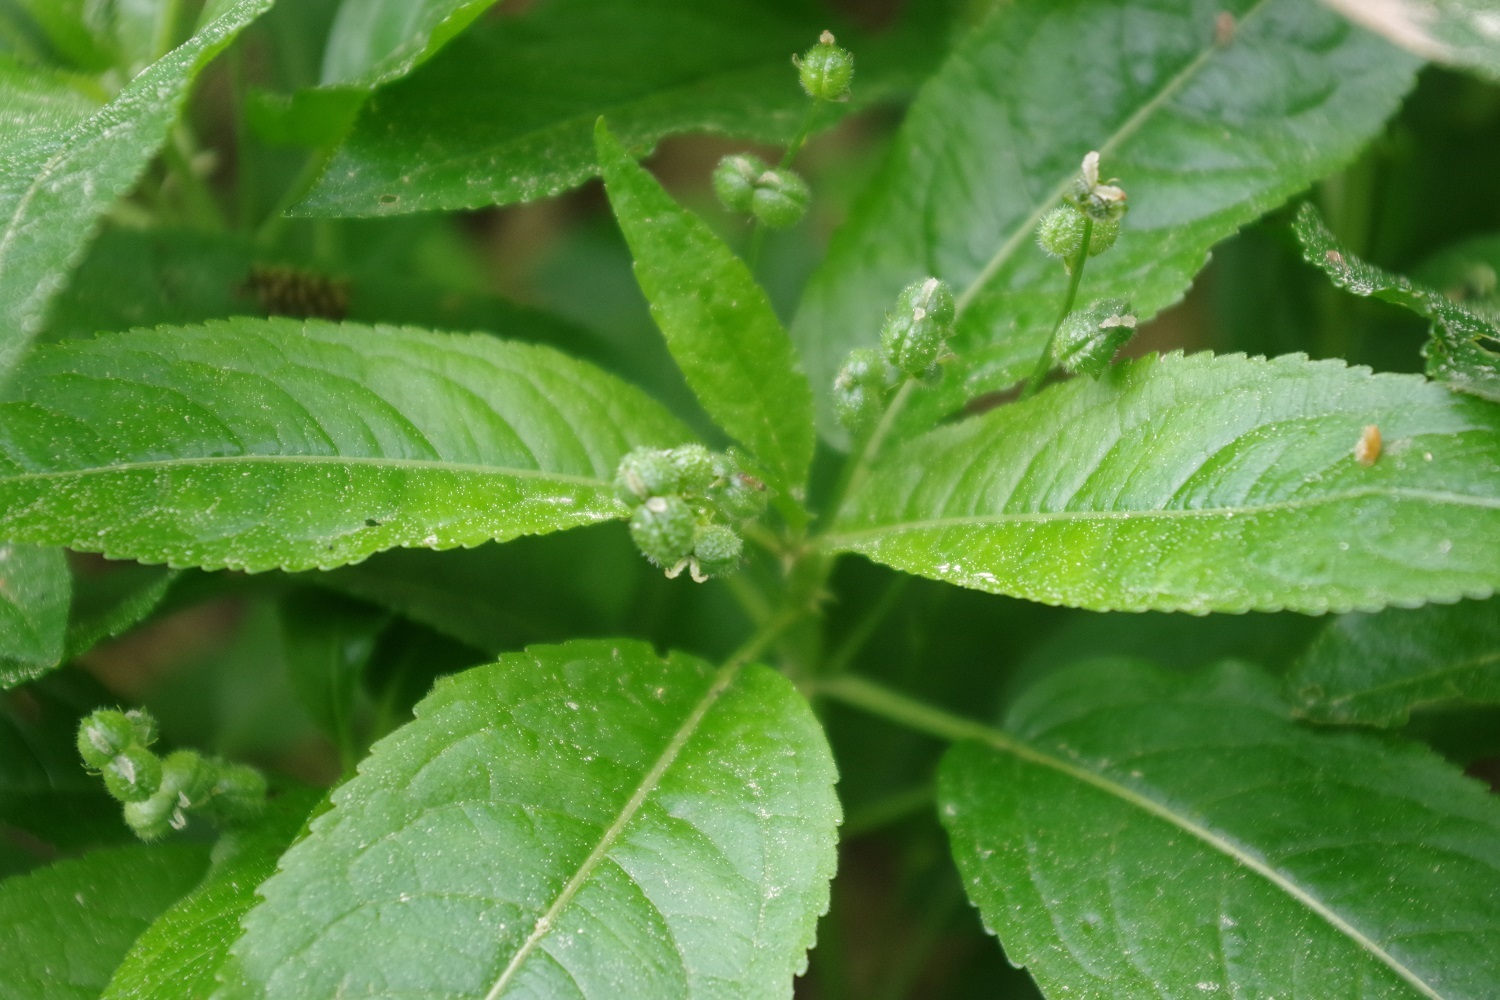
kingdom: Plantae
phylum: Tracheophyta
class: Magnoliopsida
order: Malpighiales
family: Euphorbiaceae
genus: Mercurialis
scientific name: Mercurialis perennis
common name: Dog mercury
